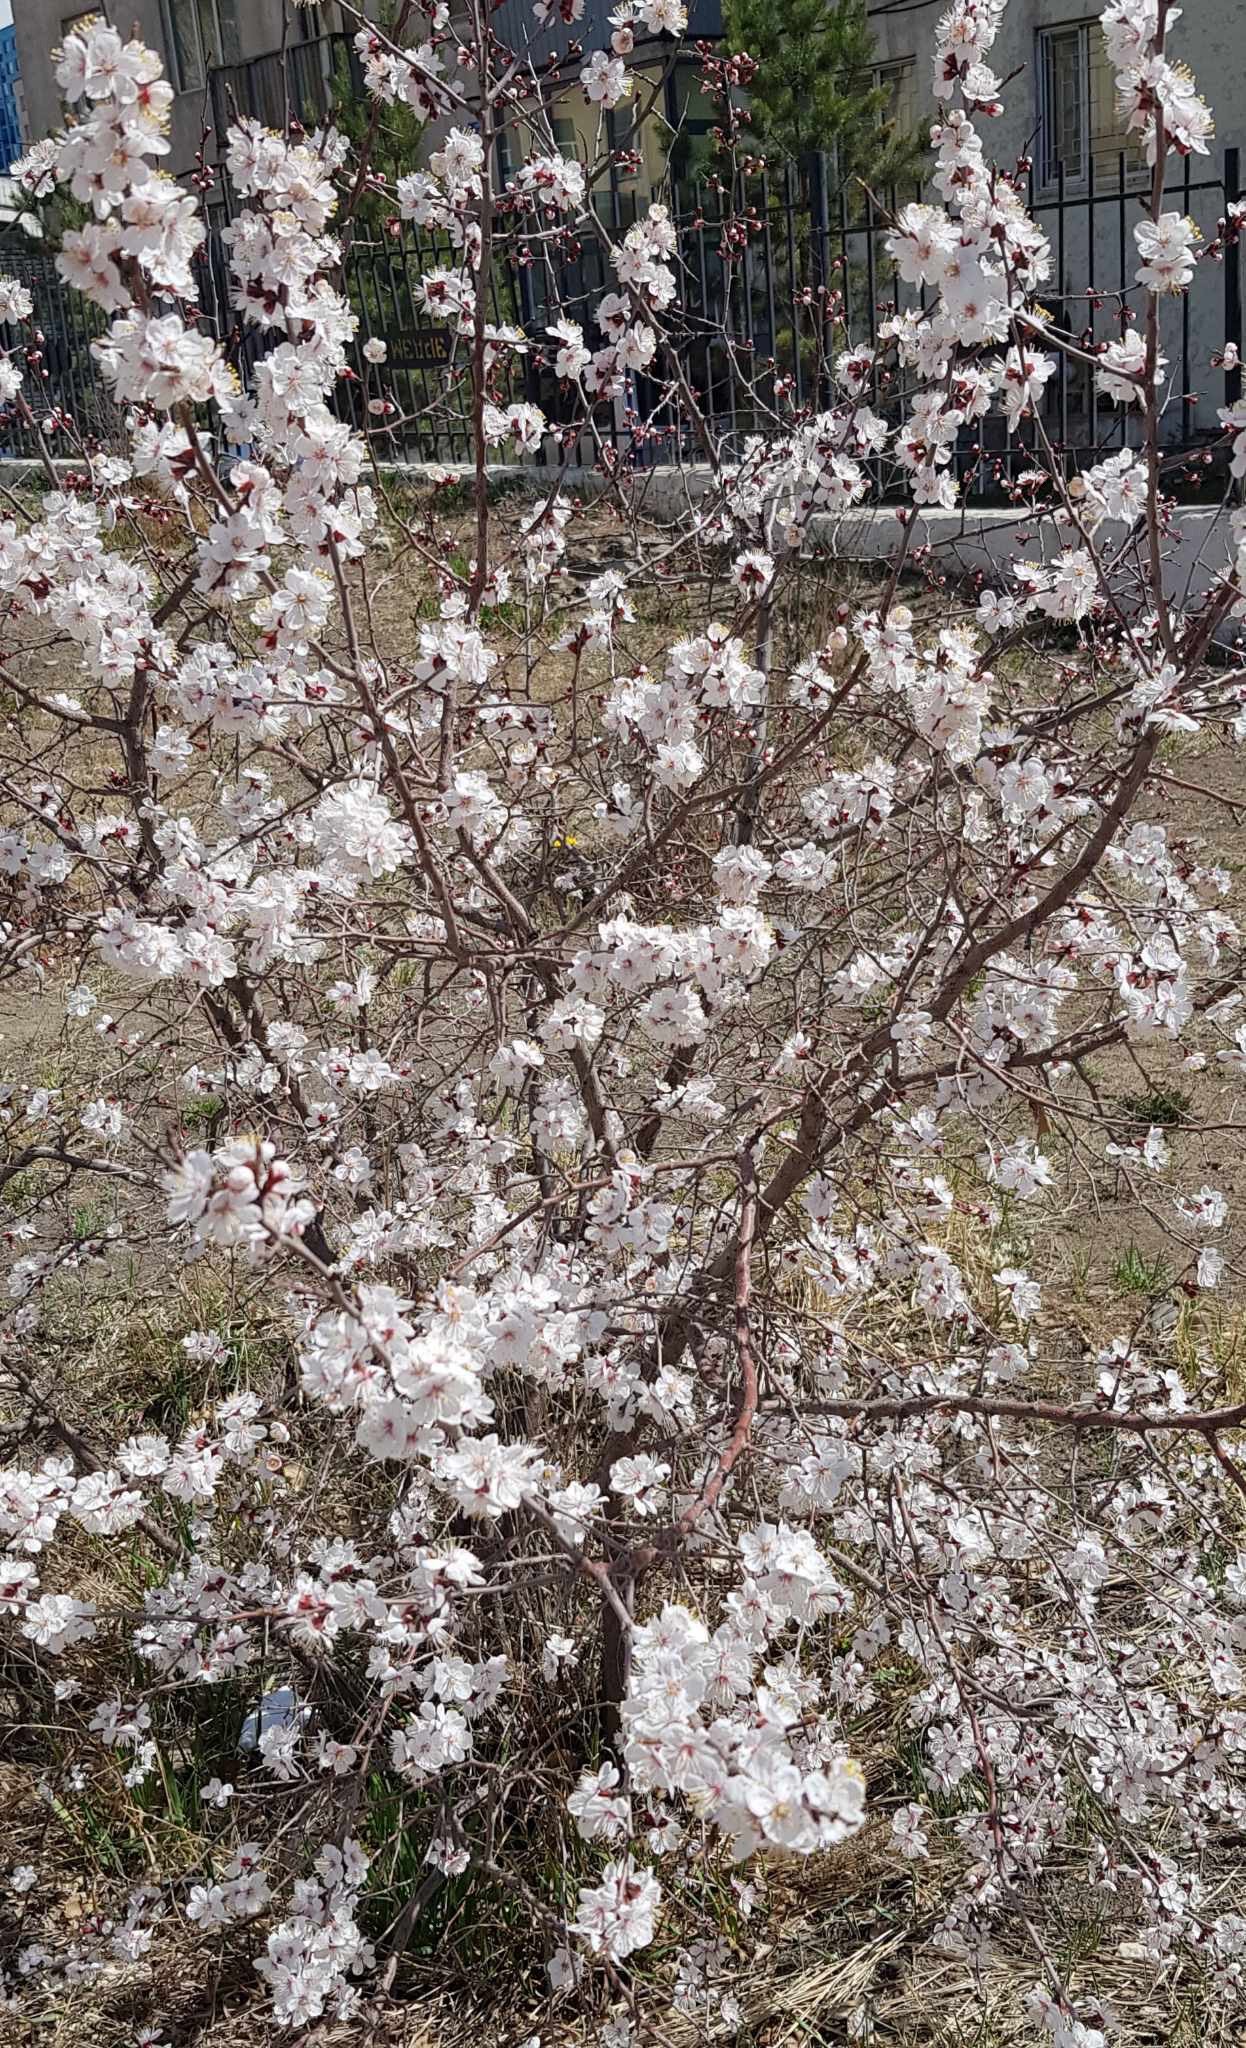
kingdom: Plantae
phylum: Tracheophyta
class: Magnoliopsida
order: Rosales
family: Rosaceae
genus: Prunus
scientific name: Prunus sibirica
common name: Siberian apricot
